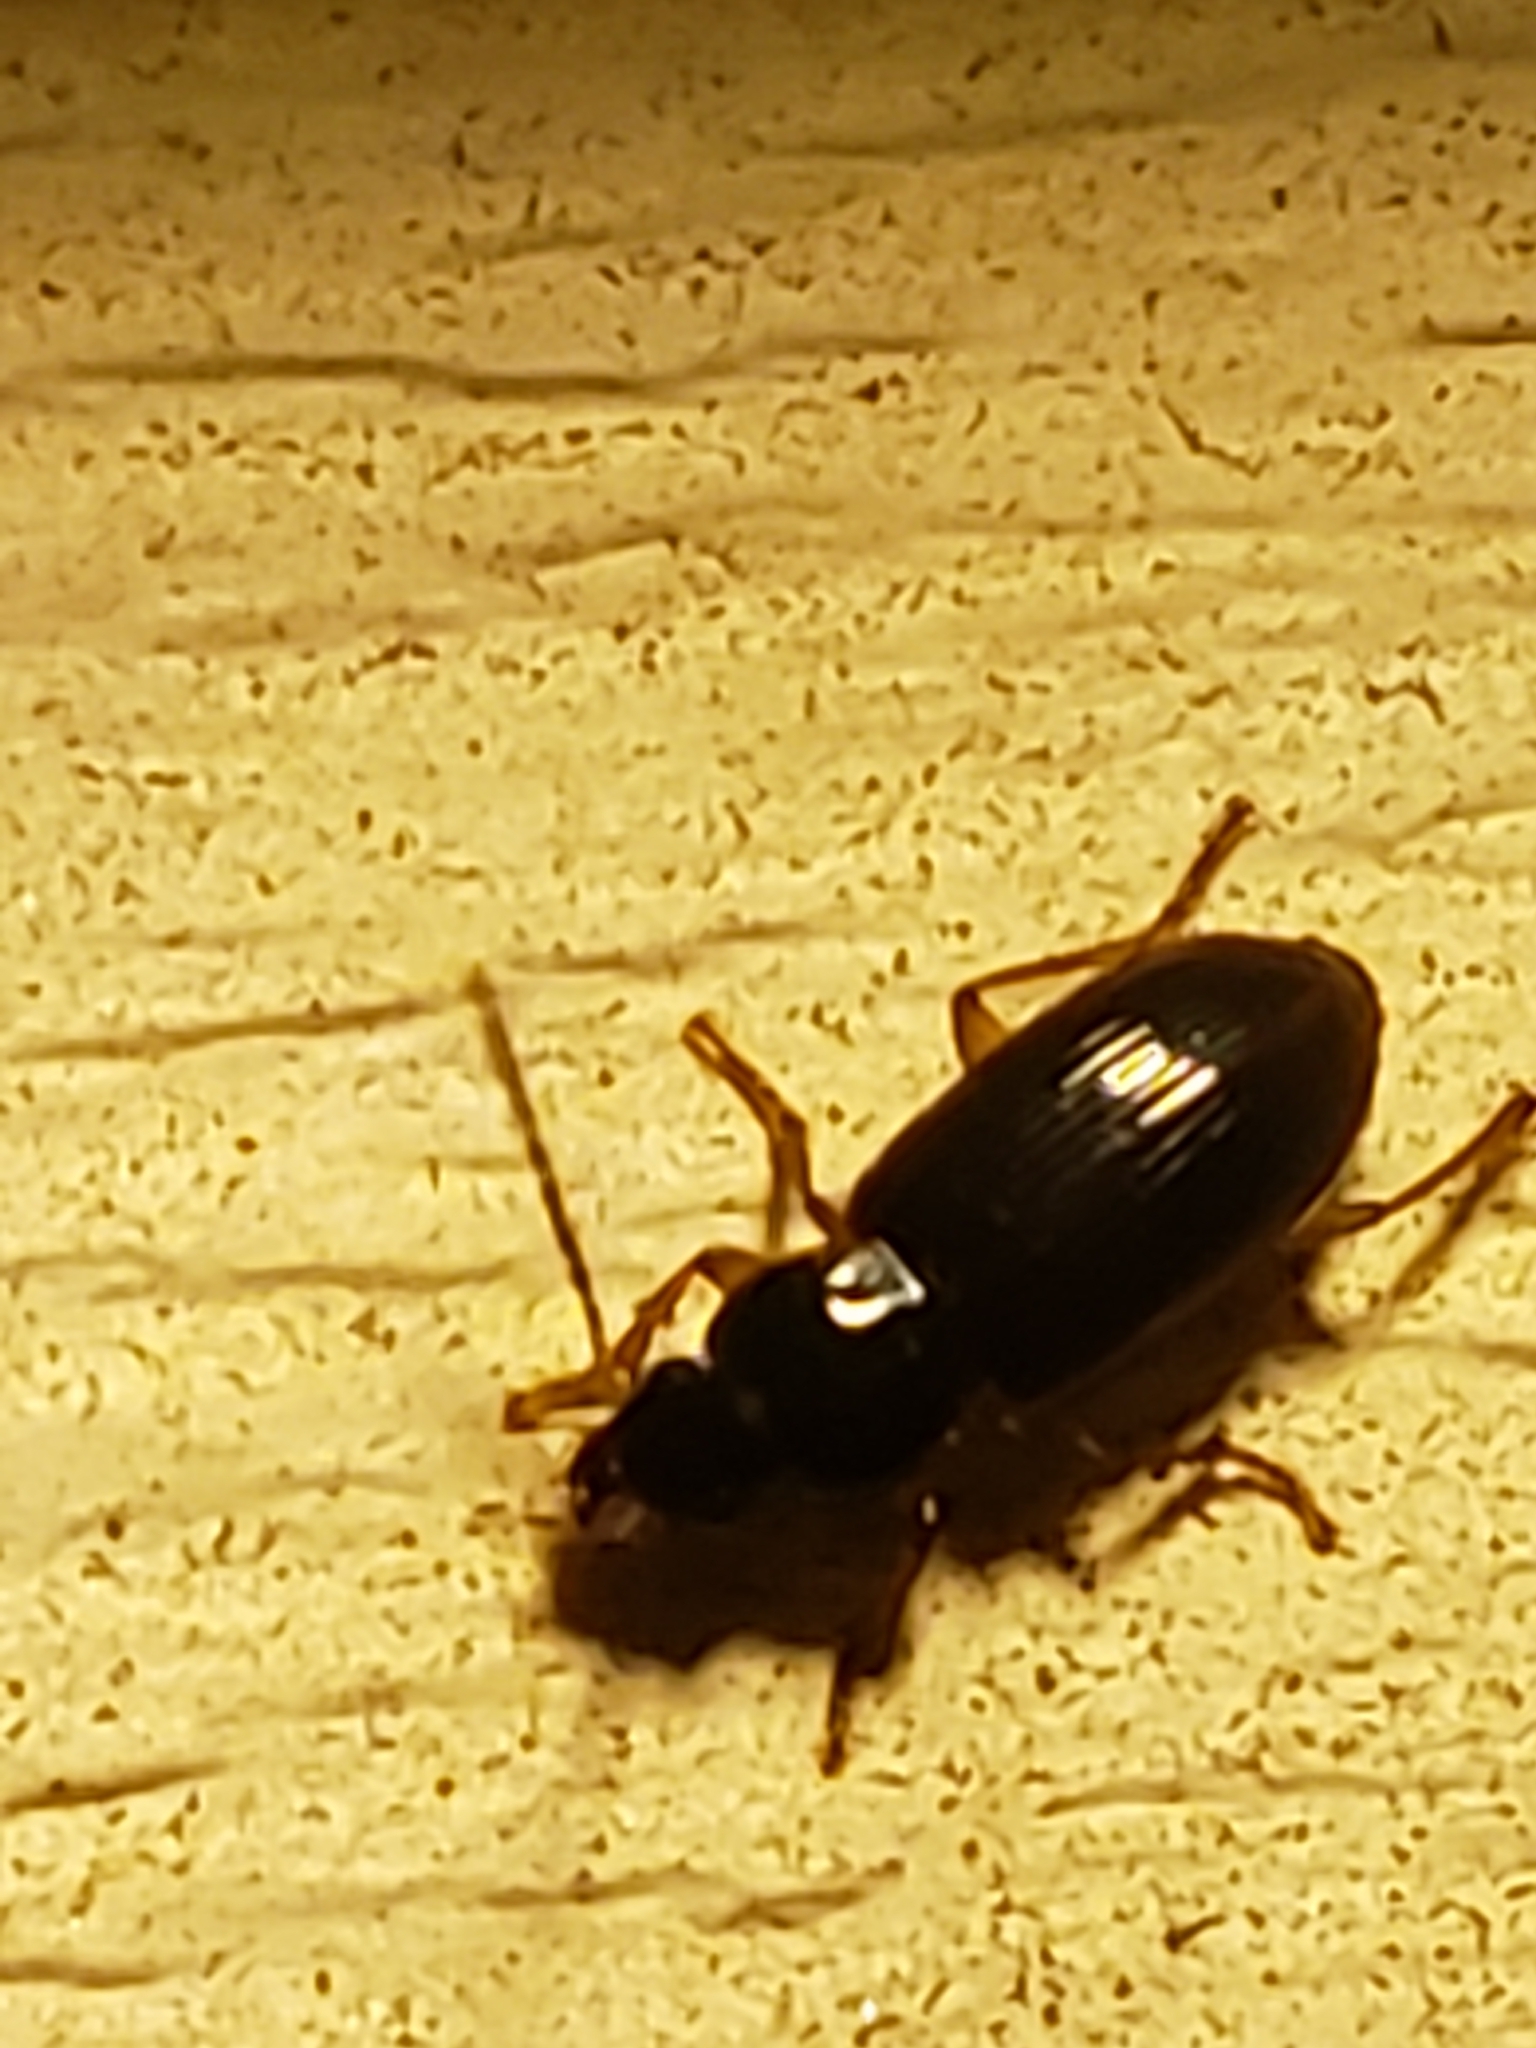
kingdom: Animalia
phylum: Arthropoda
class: Insecta
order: Coleoptera
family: Carabidae
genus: Stenolophus
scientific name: Stenolophus ochropezus
